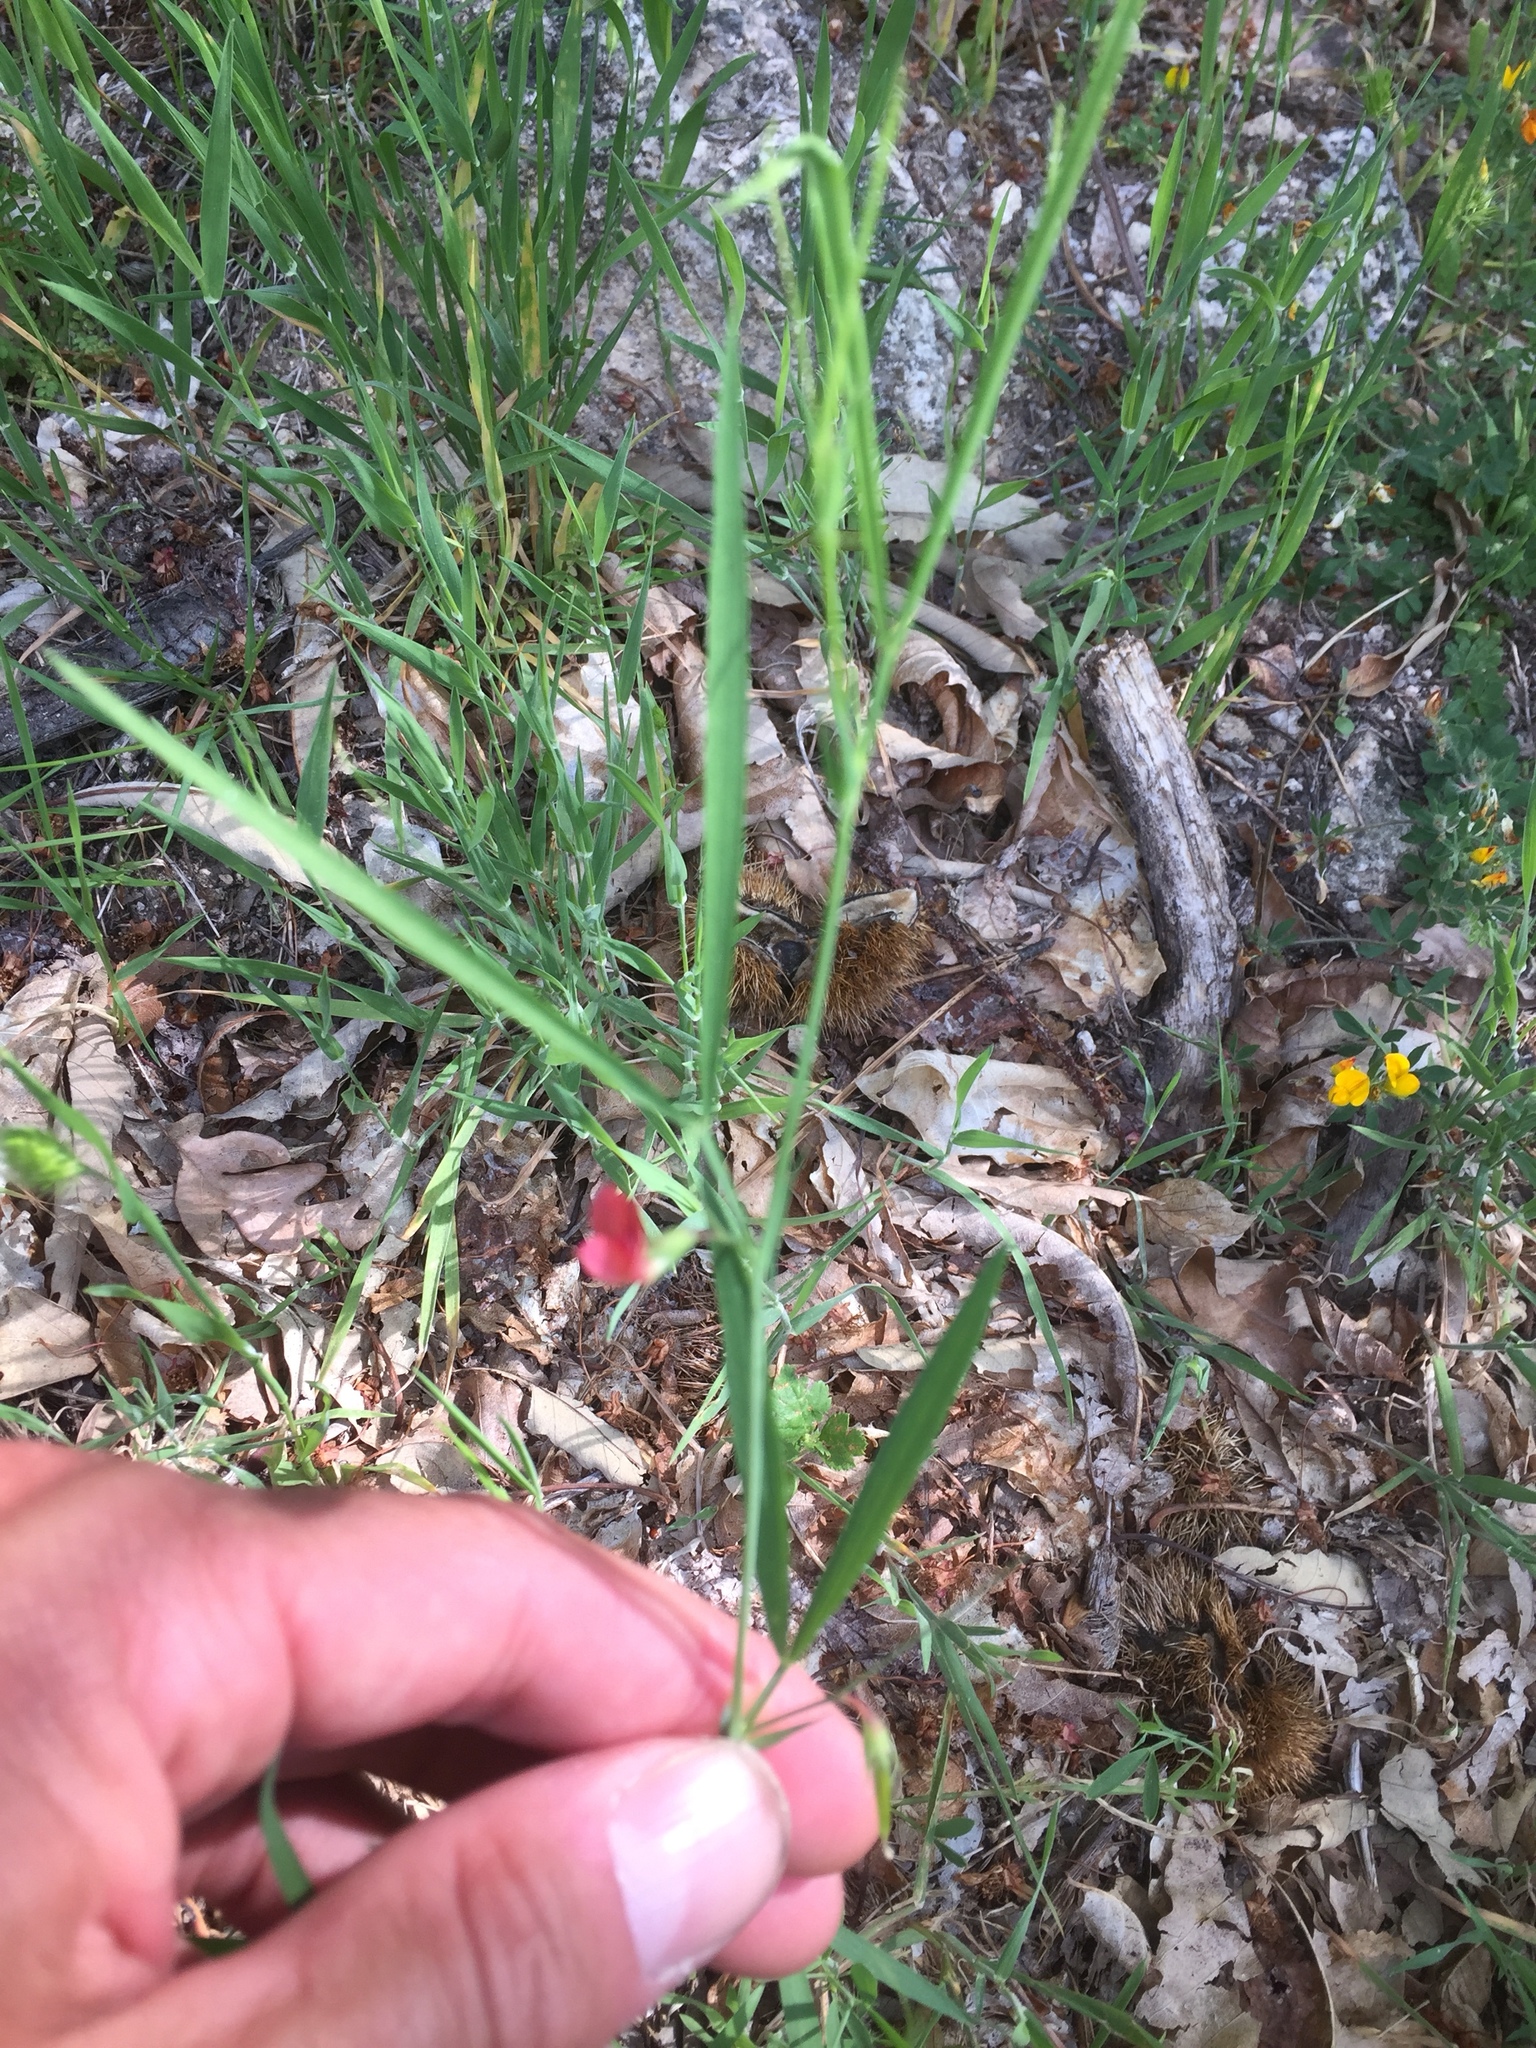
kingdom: Plantae
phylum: Tracheophyta
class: Magnoliopsida
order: Fabales
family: Fabaceae
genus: Lathyrus
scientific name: Lathyrus sphaericus
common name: Grass pea
